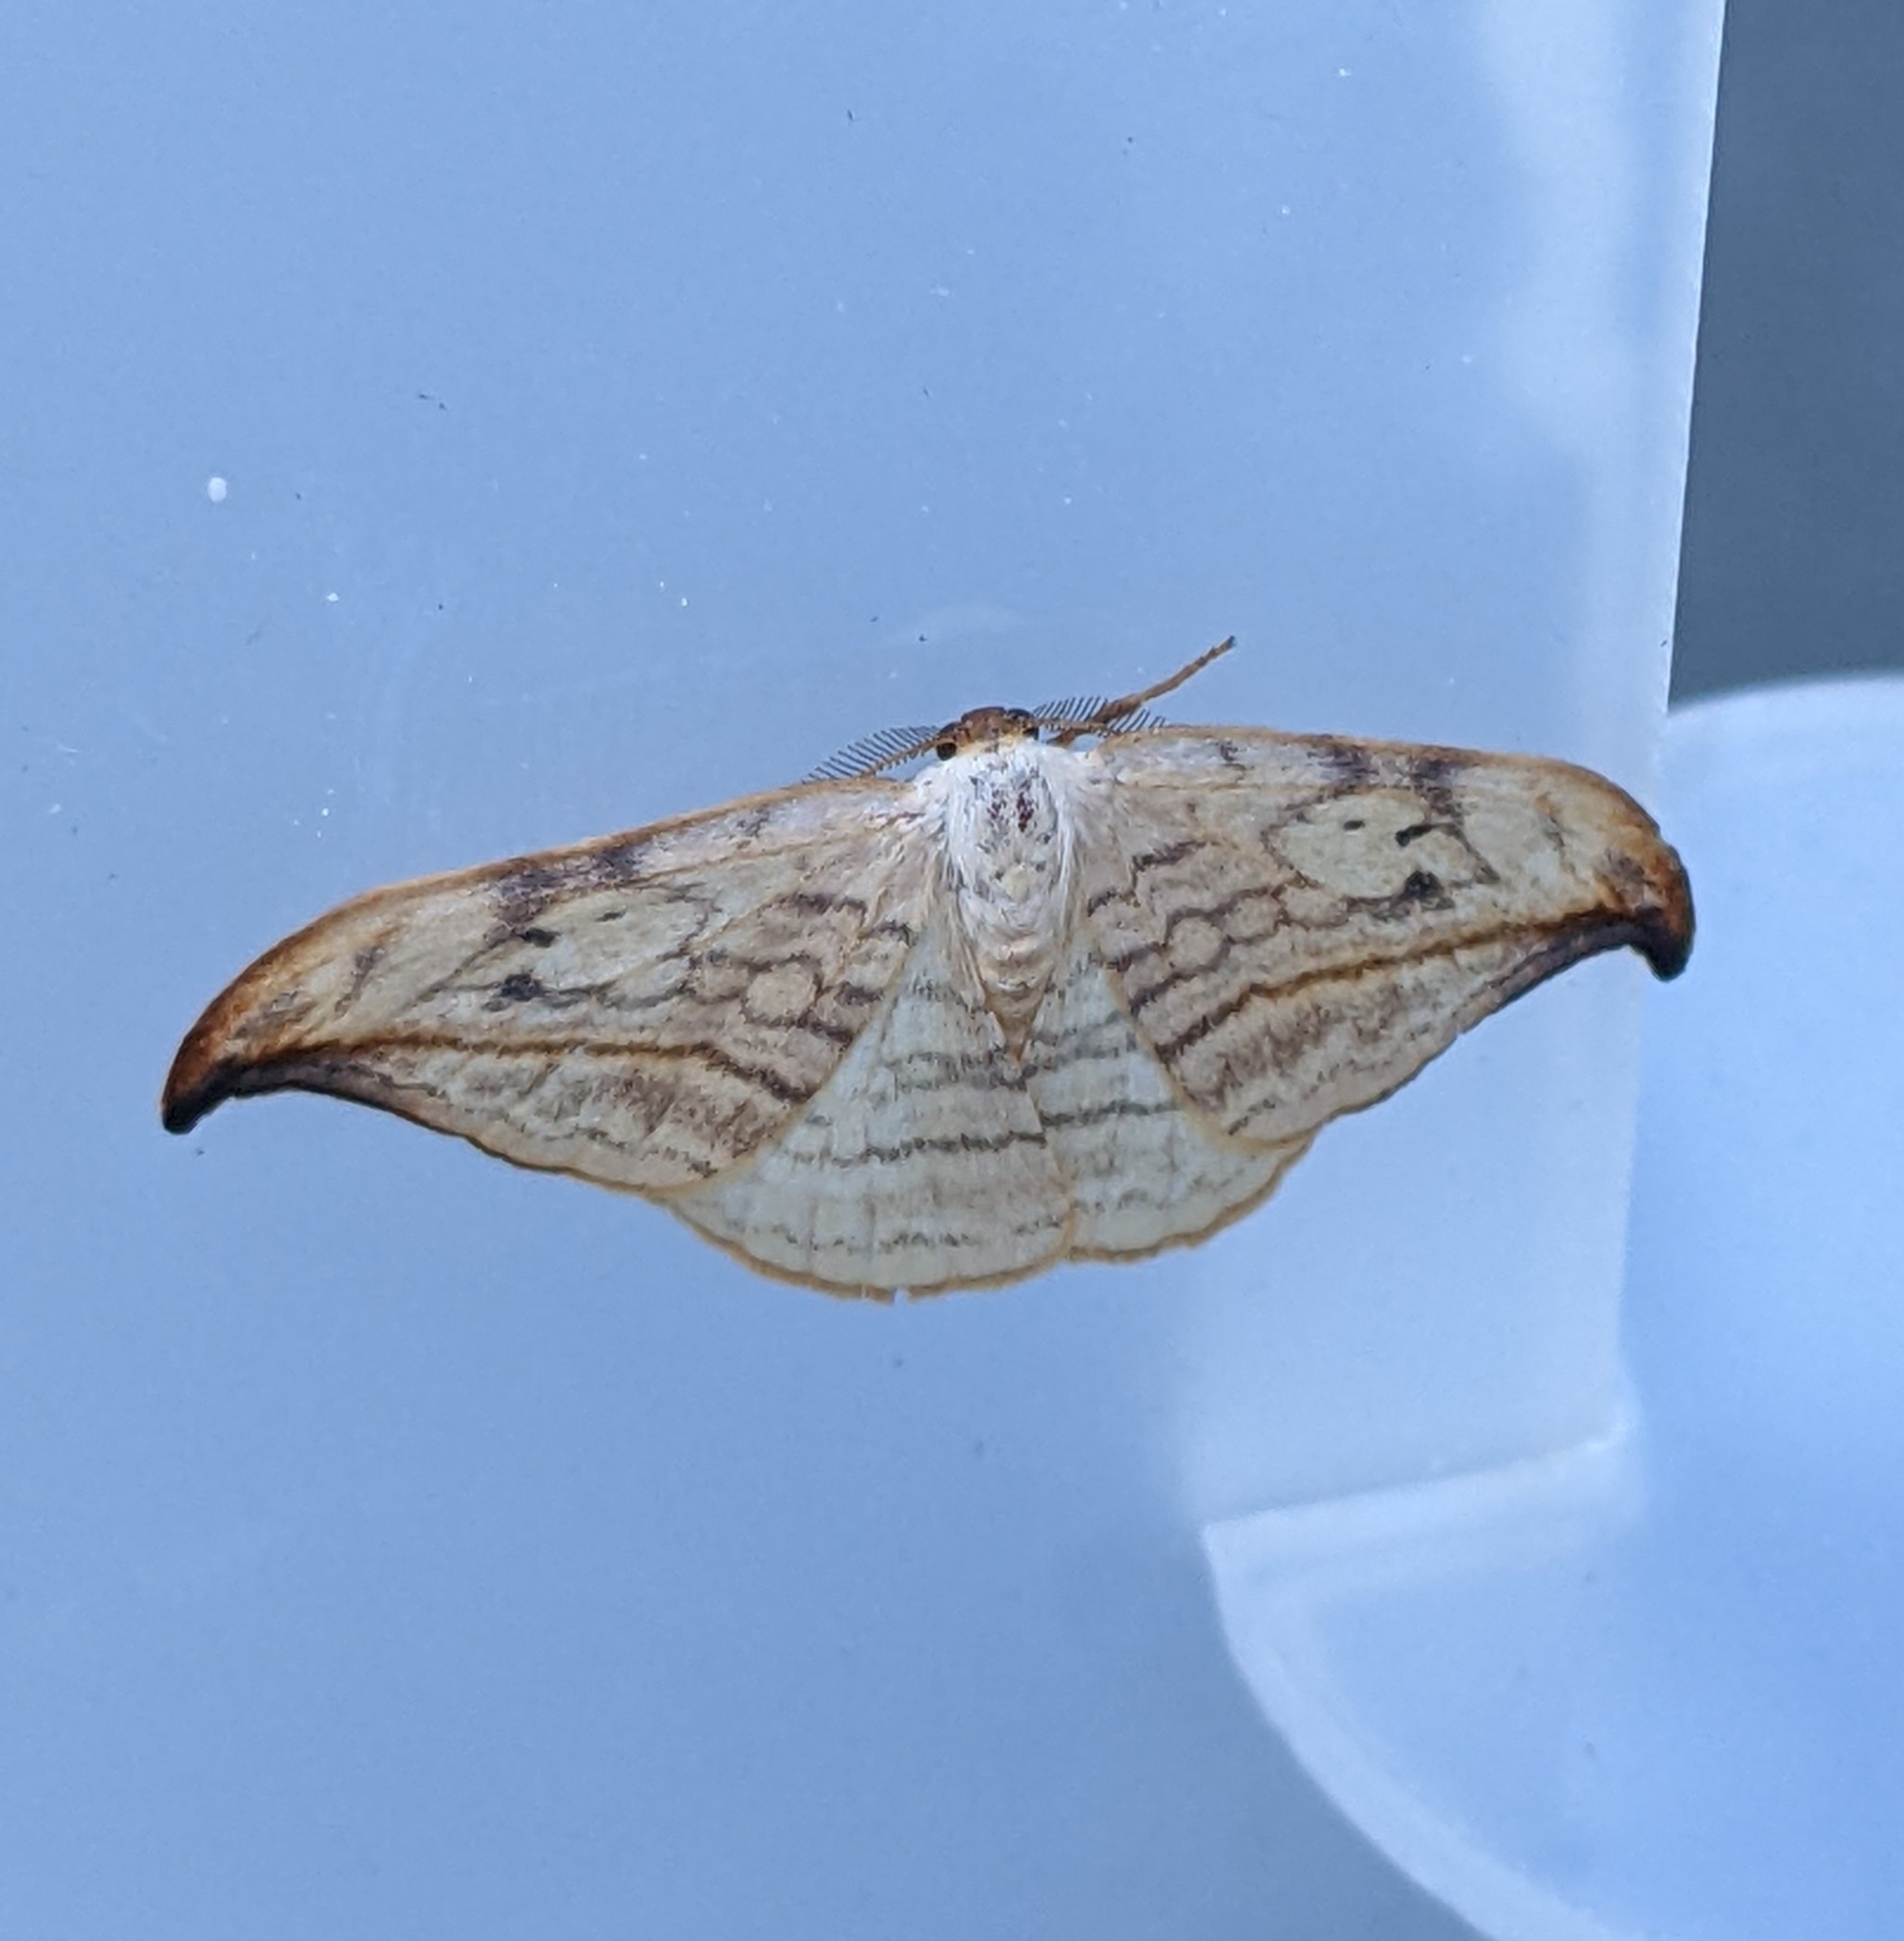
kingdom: Animalia
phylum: Arthropoda
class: Insecta
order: Lepidoptera
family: Drepanidae
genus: Drepana
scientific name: Drepana arcuata
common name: Arched hooktip moth
